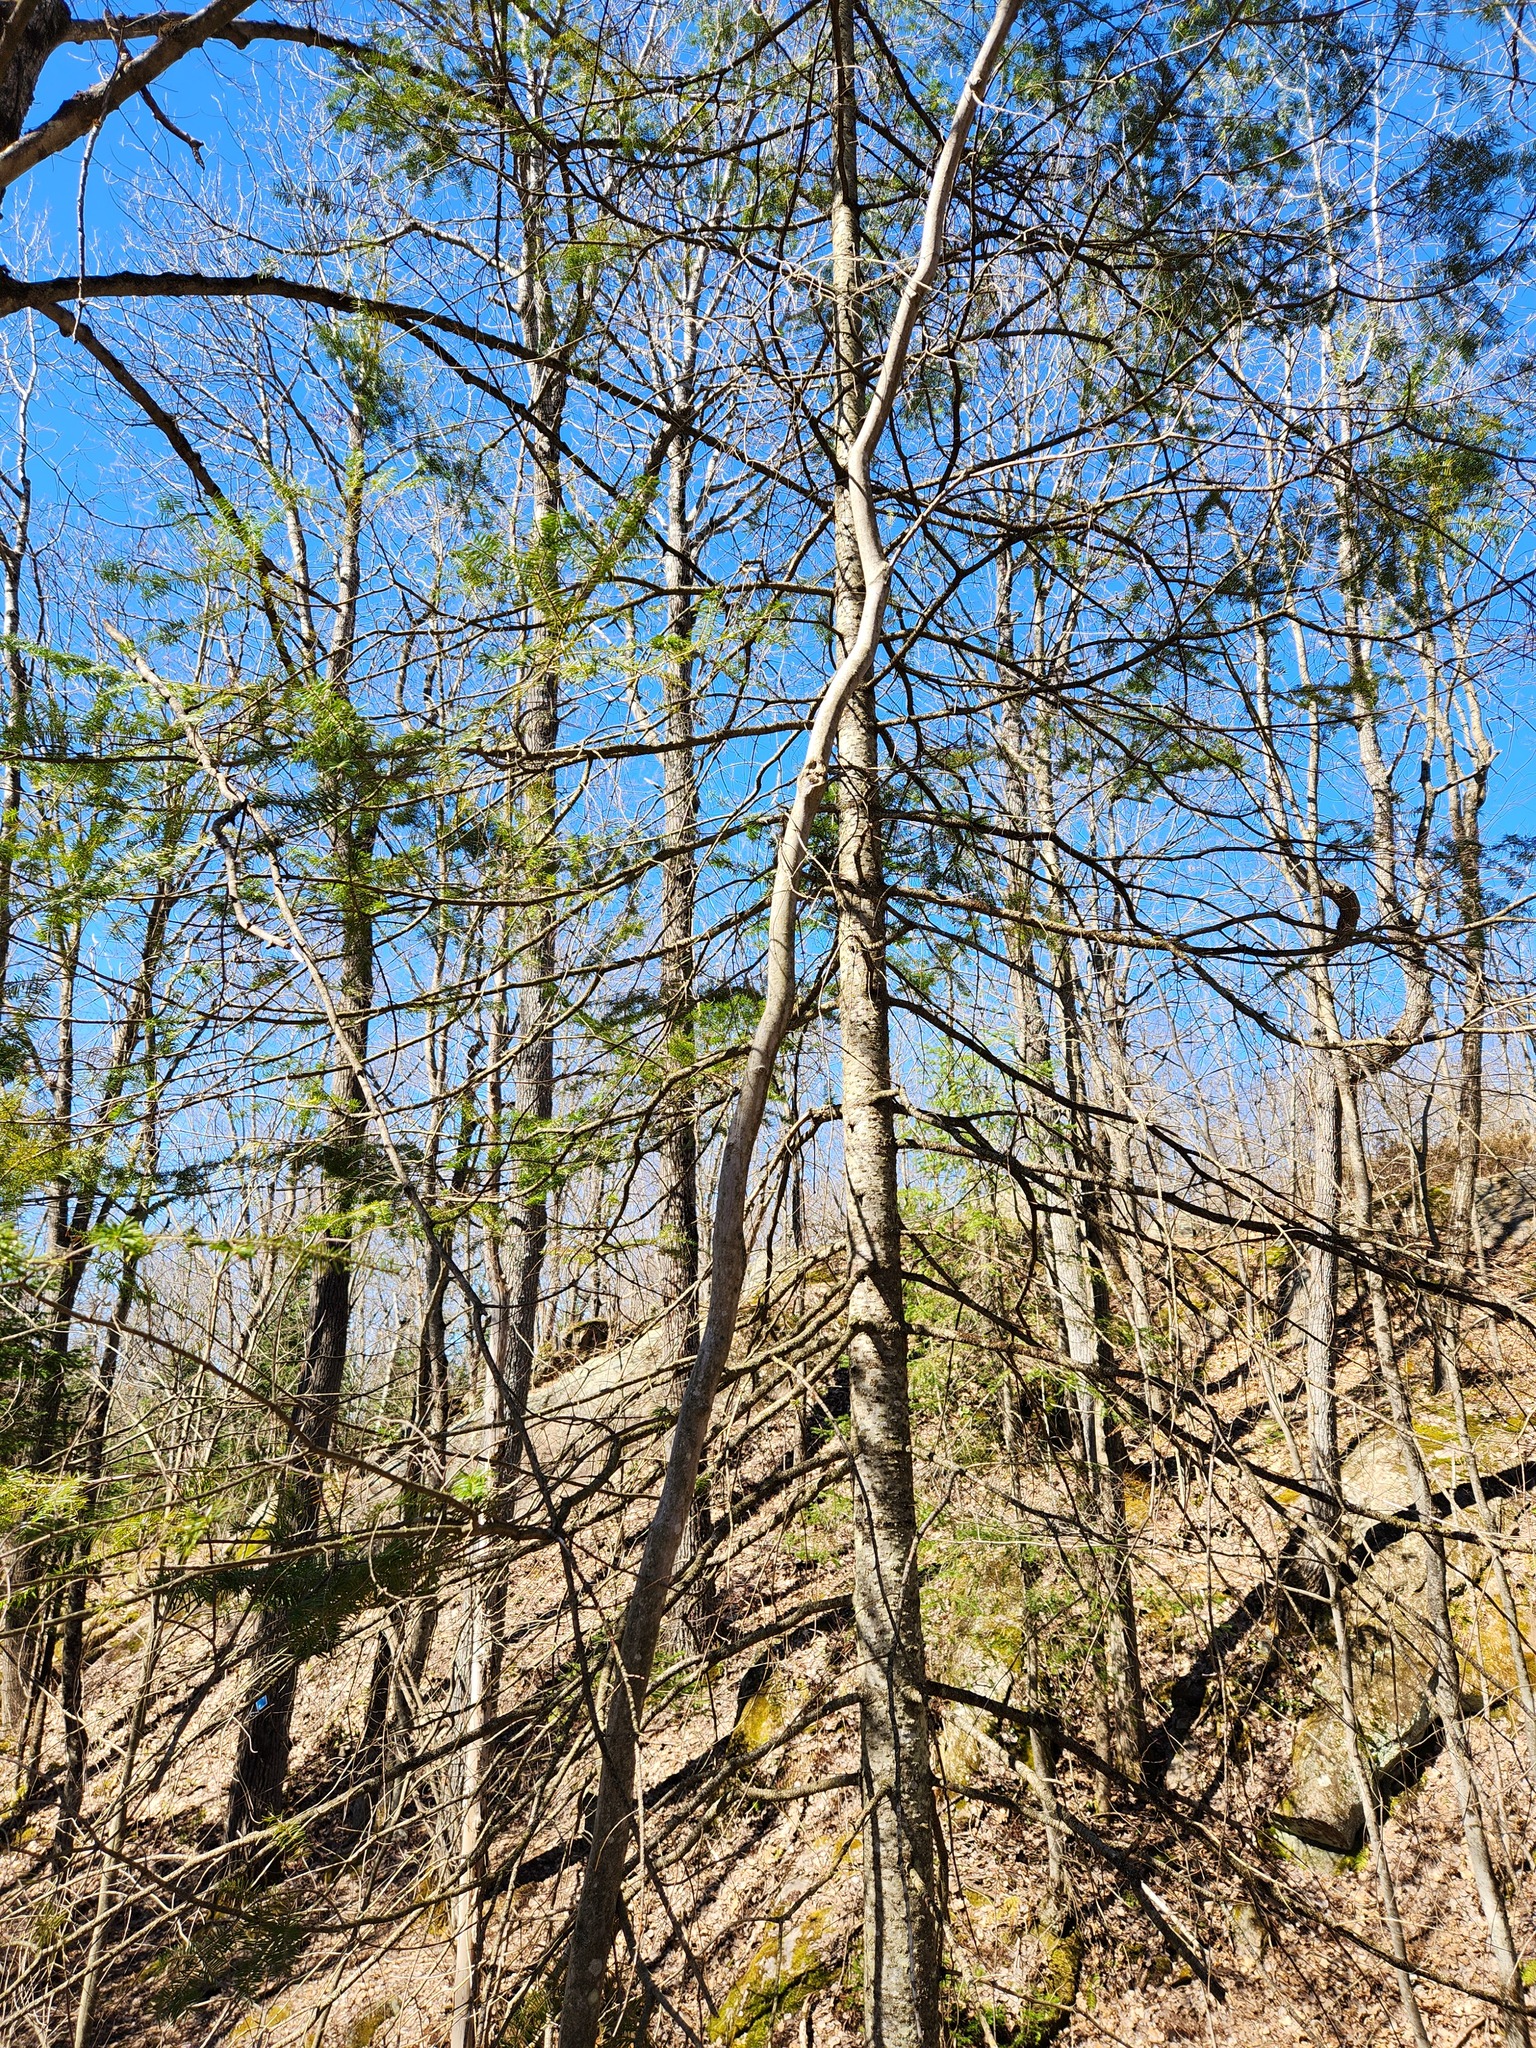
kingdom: Plantae
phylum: Tracheophyta
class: Pinopsida
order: Pinales
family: Pinaceae
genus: Abies
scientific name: Abies balsamea
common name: Balsam fir
